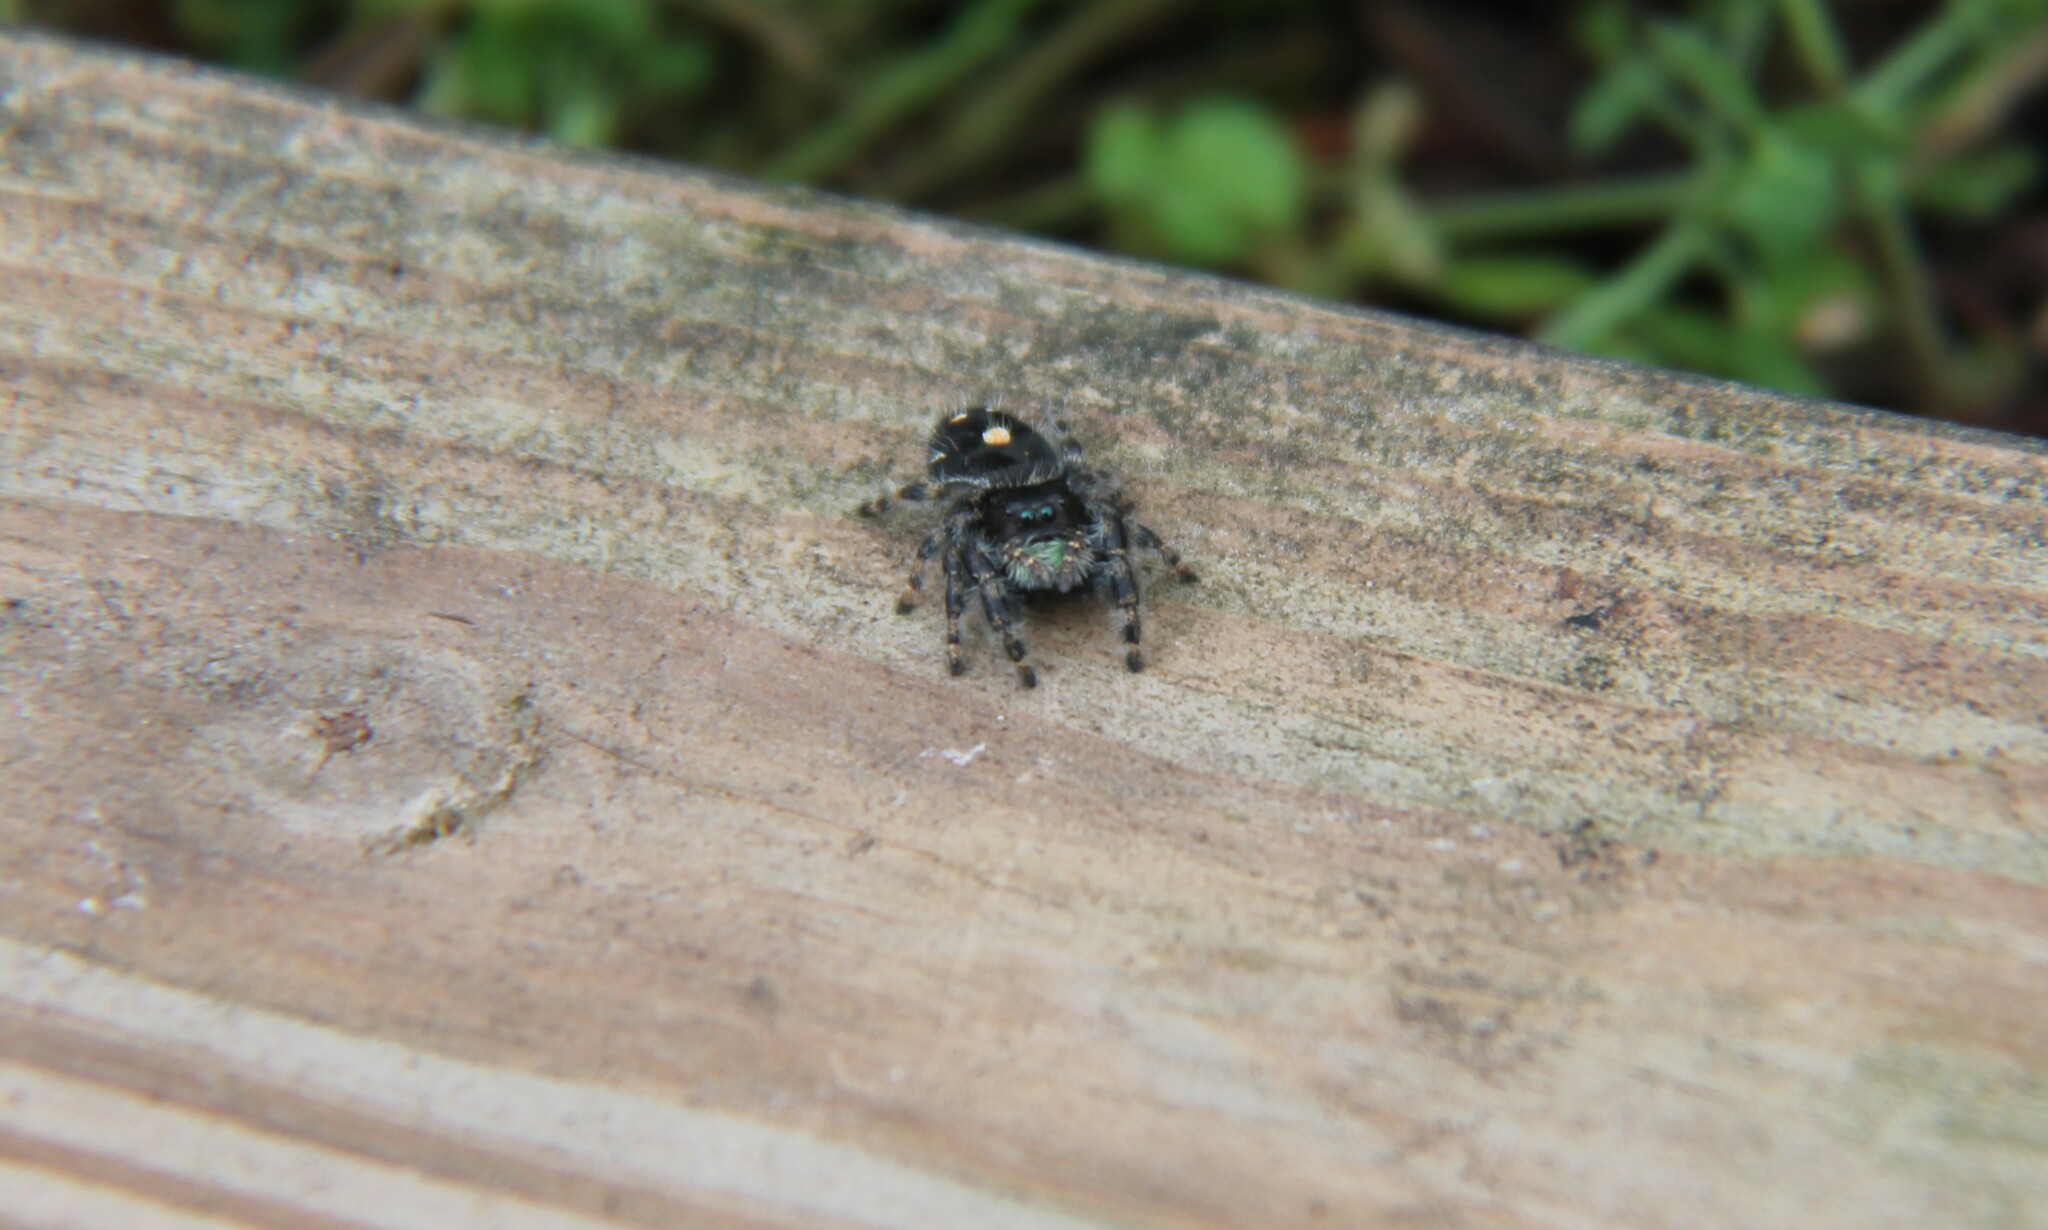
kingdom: Animalia
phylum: Arthropoda
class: Arachnida
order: Araneae
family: Salticidae
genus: Phidippus
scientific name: Phidippus audax
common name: Bold jumper
